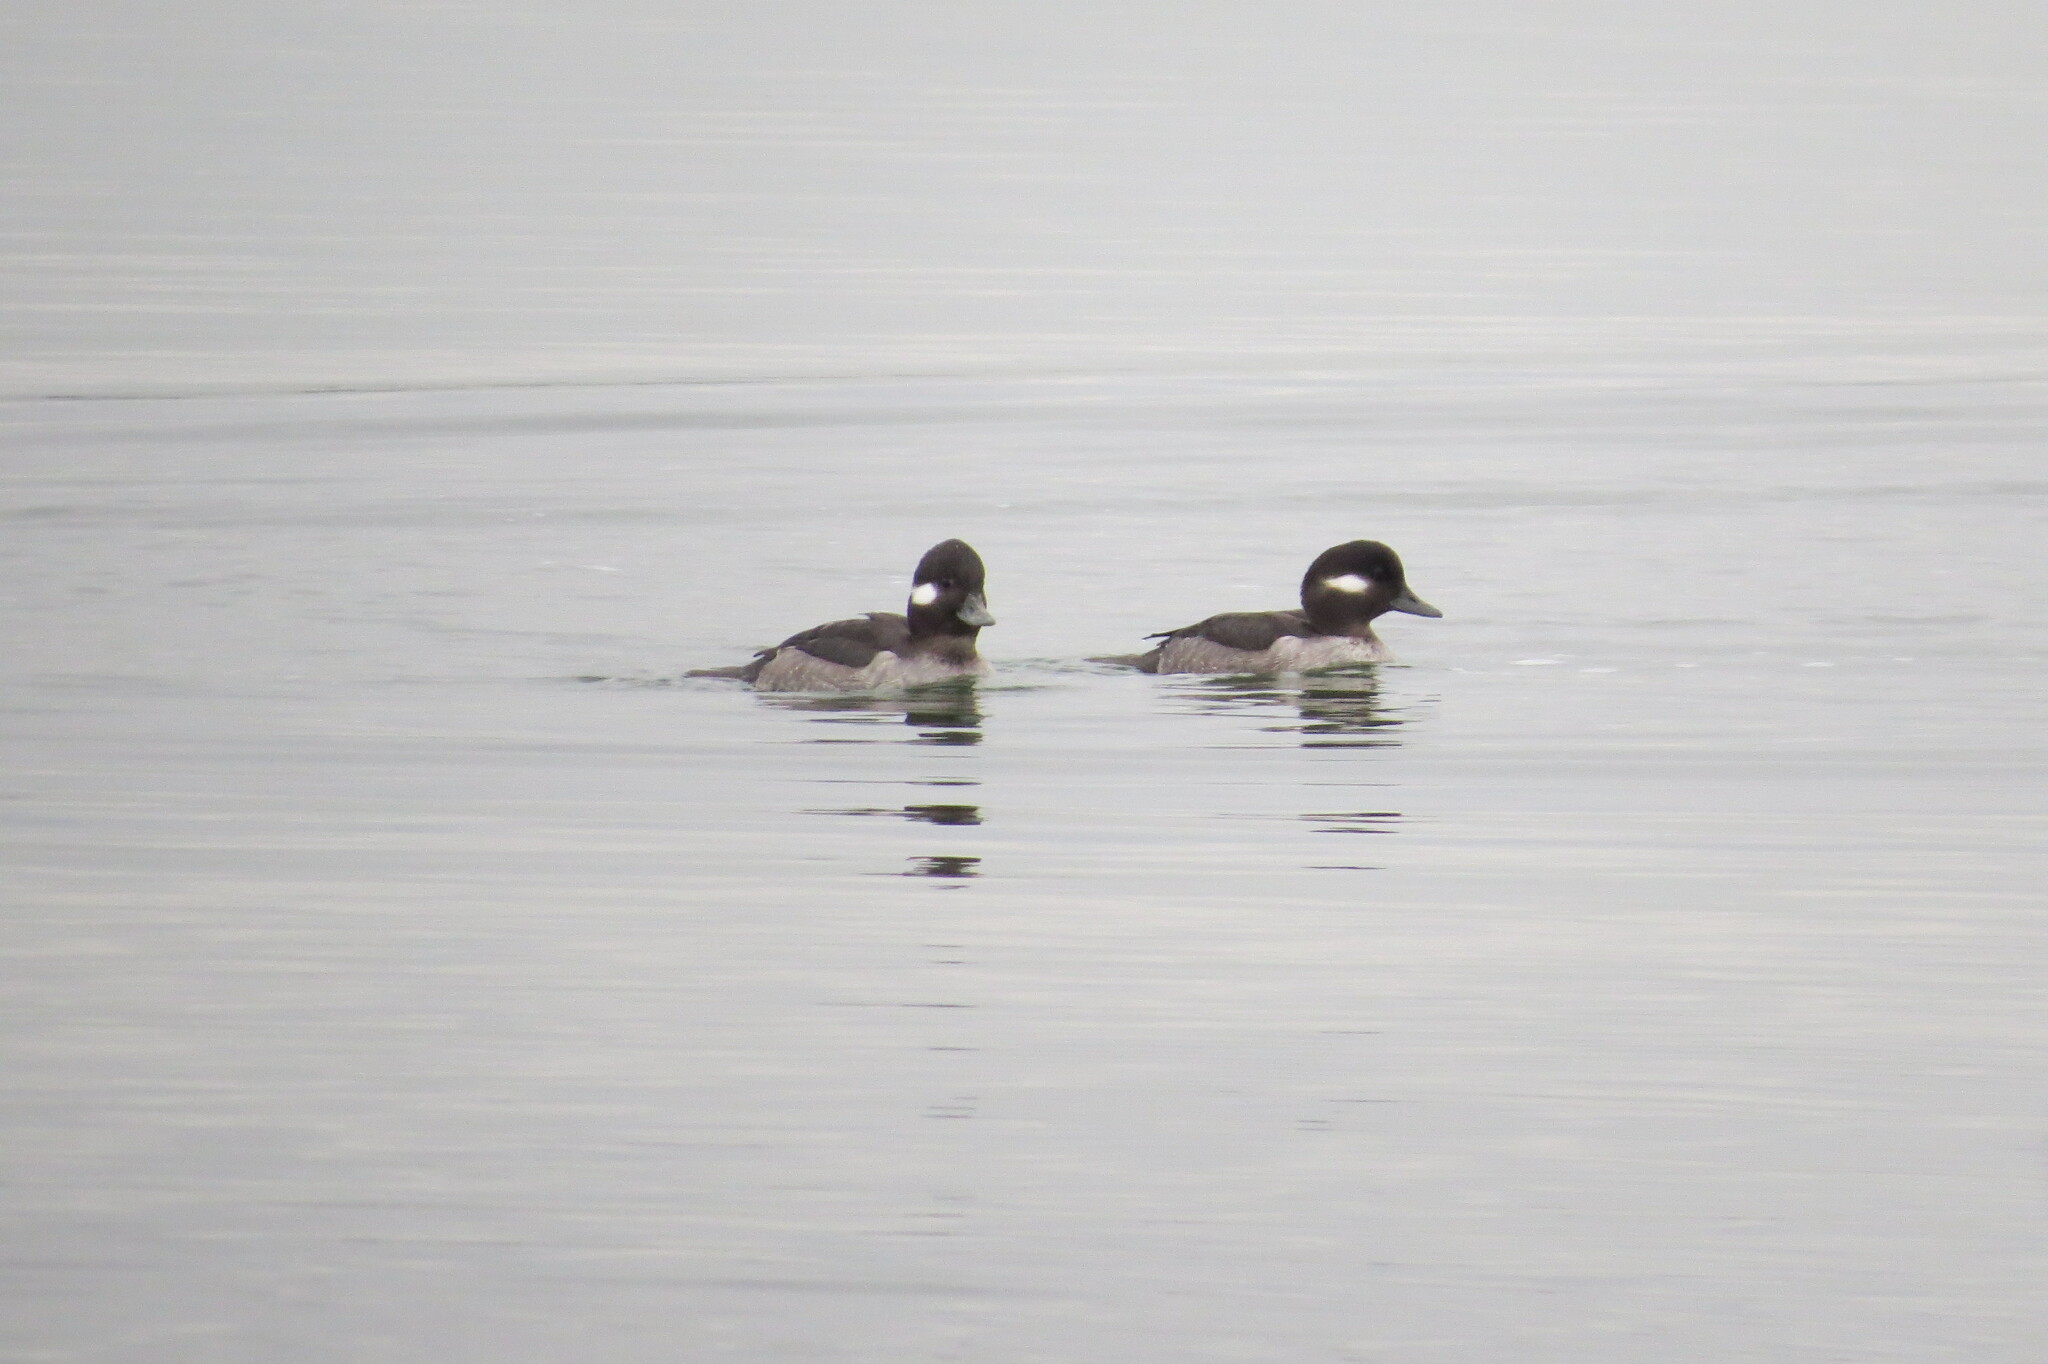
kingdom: Animalia
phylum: Chordata
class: Aves
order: Anseriformes
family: Anatidae
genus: Bucephala
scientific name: Bucephala albeola
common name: Bufflehead
